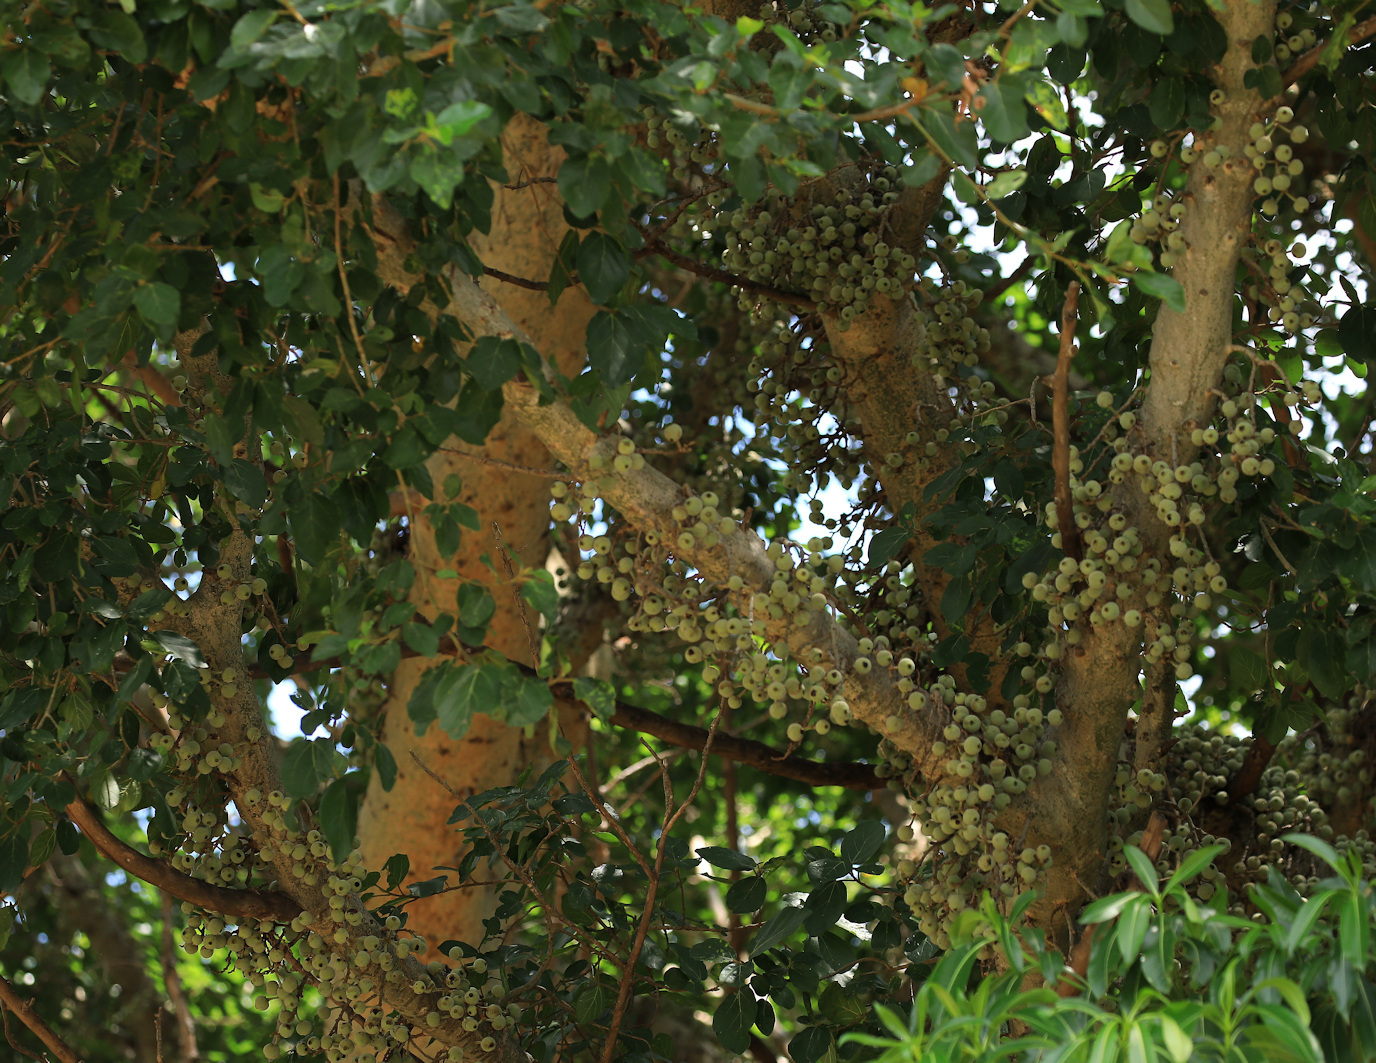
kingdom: Plantae
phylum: Tracheophyta
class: Magnoliopsida
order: Rosales
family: Moraceae
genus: Ficus
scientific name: Ficus sycomorus
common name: Sycomore
